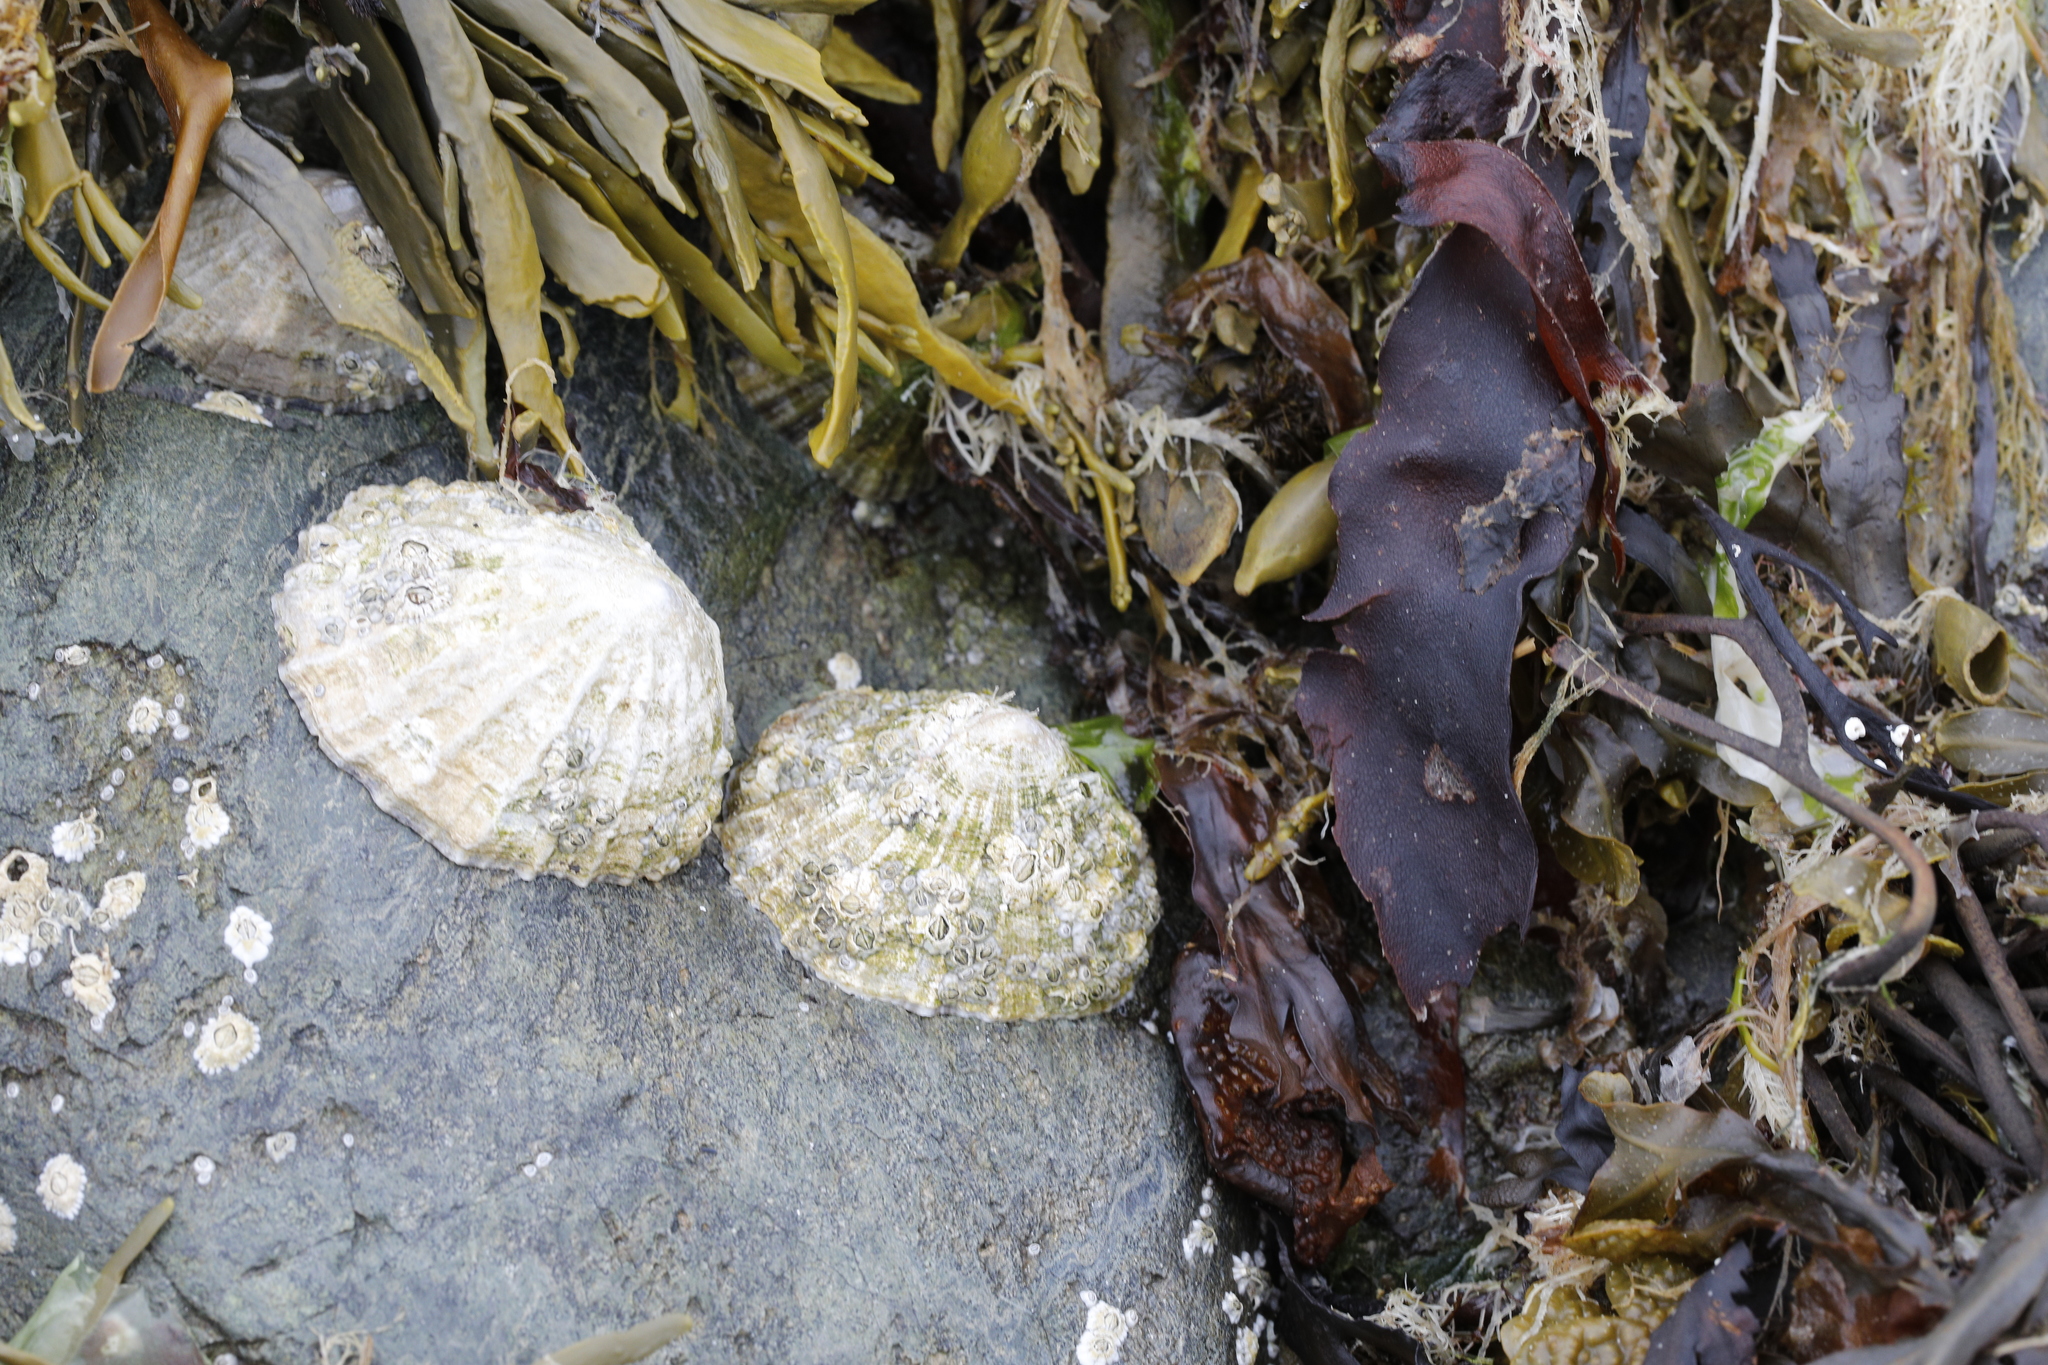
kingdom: Animalia
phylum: Mollusca
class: Gastropoda
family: Patellidae
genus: Patella
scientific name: Patella vulgata
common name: Common limpet
